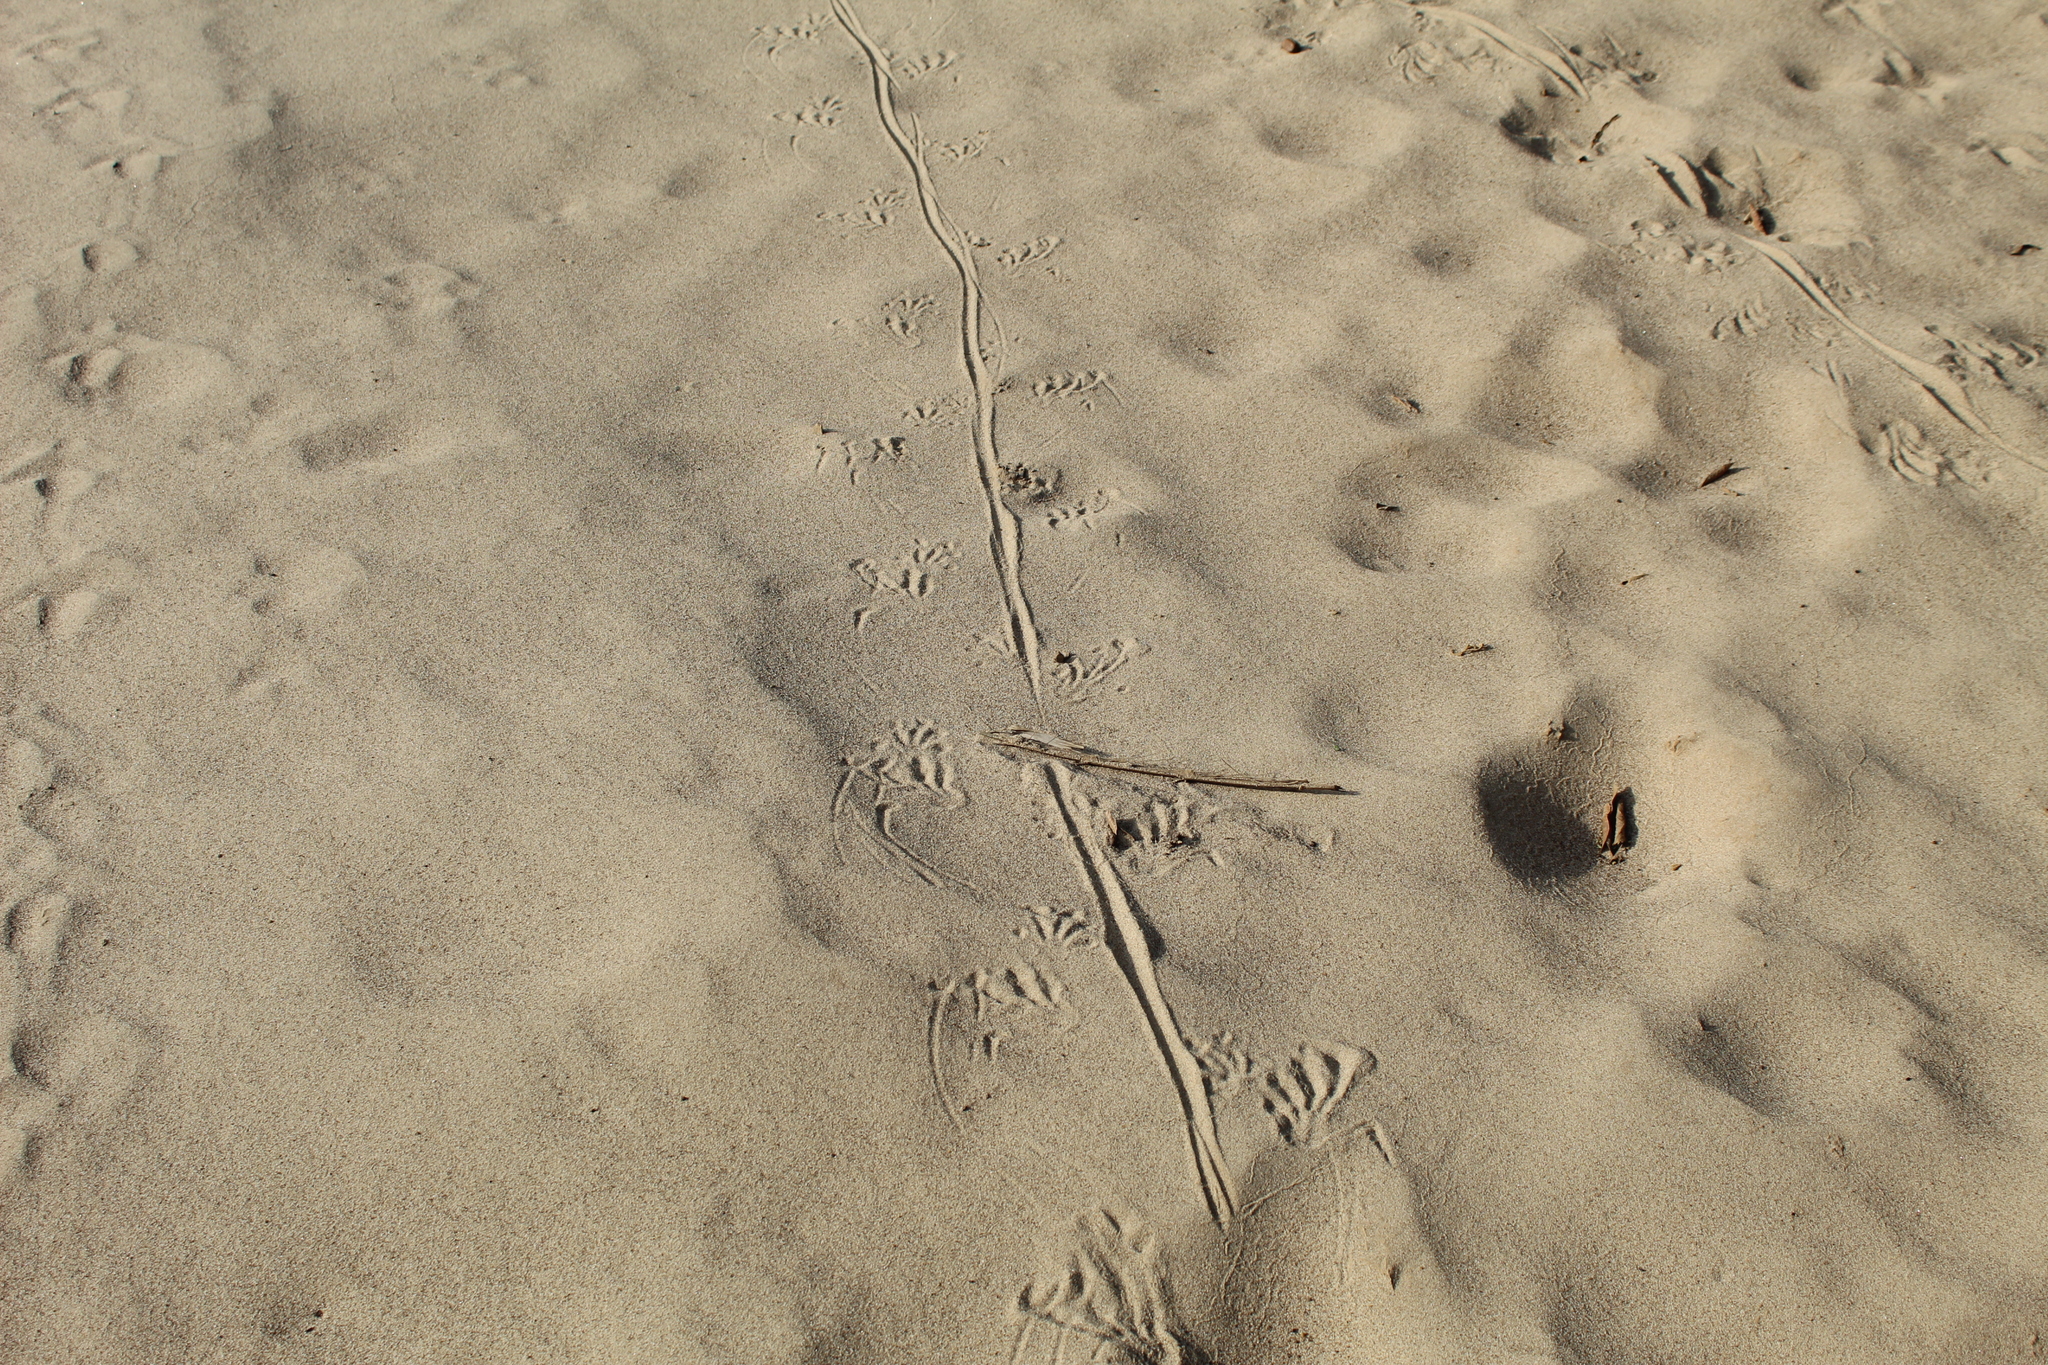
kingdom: Animalia
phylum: Chordata
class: Squamata
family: Iguanidae
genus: Iguana
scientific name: Iguana iguana
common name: Green iguana
